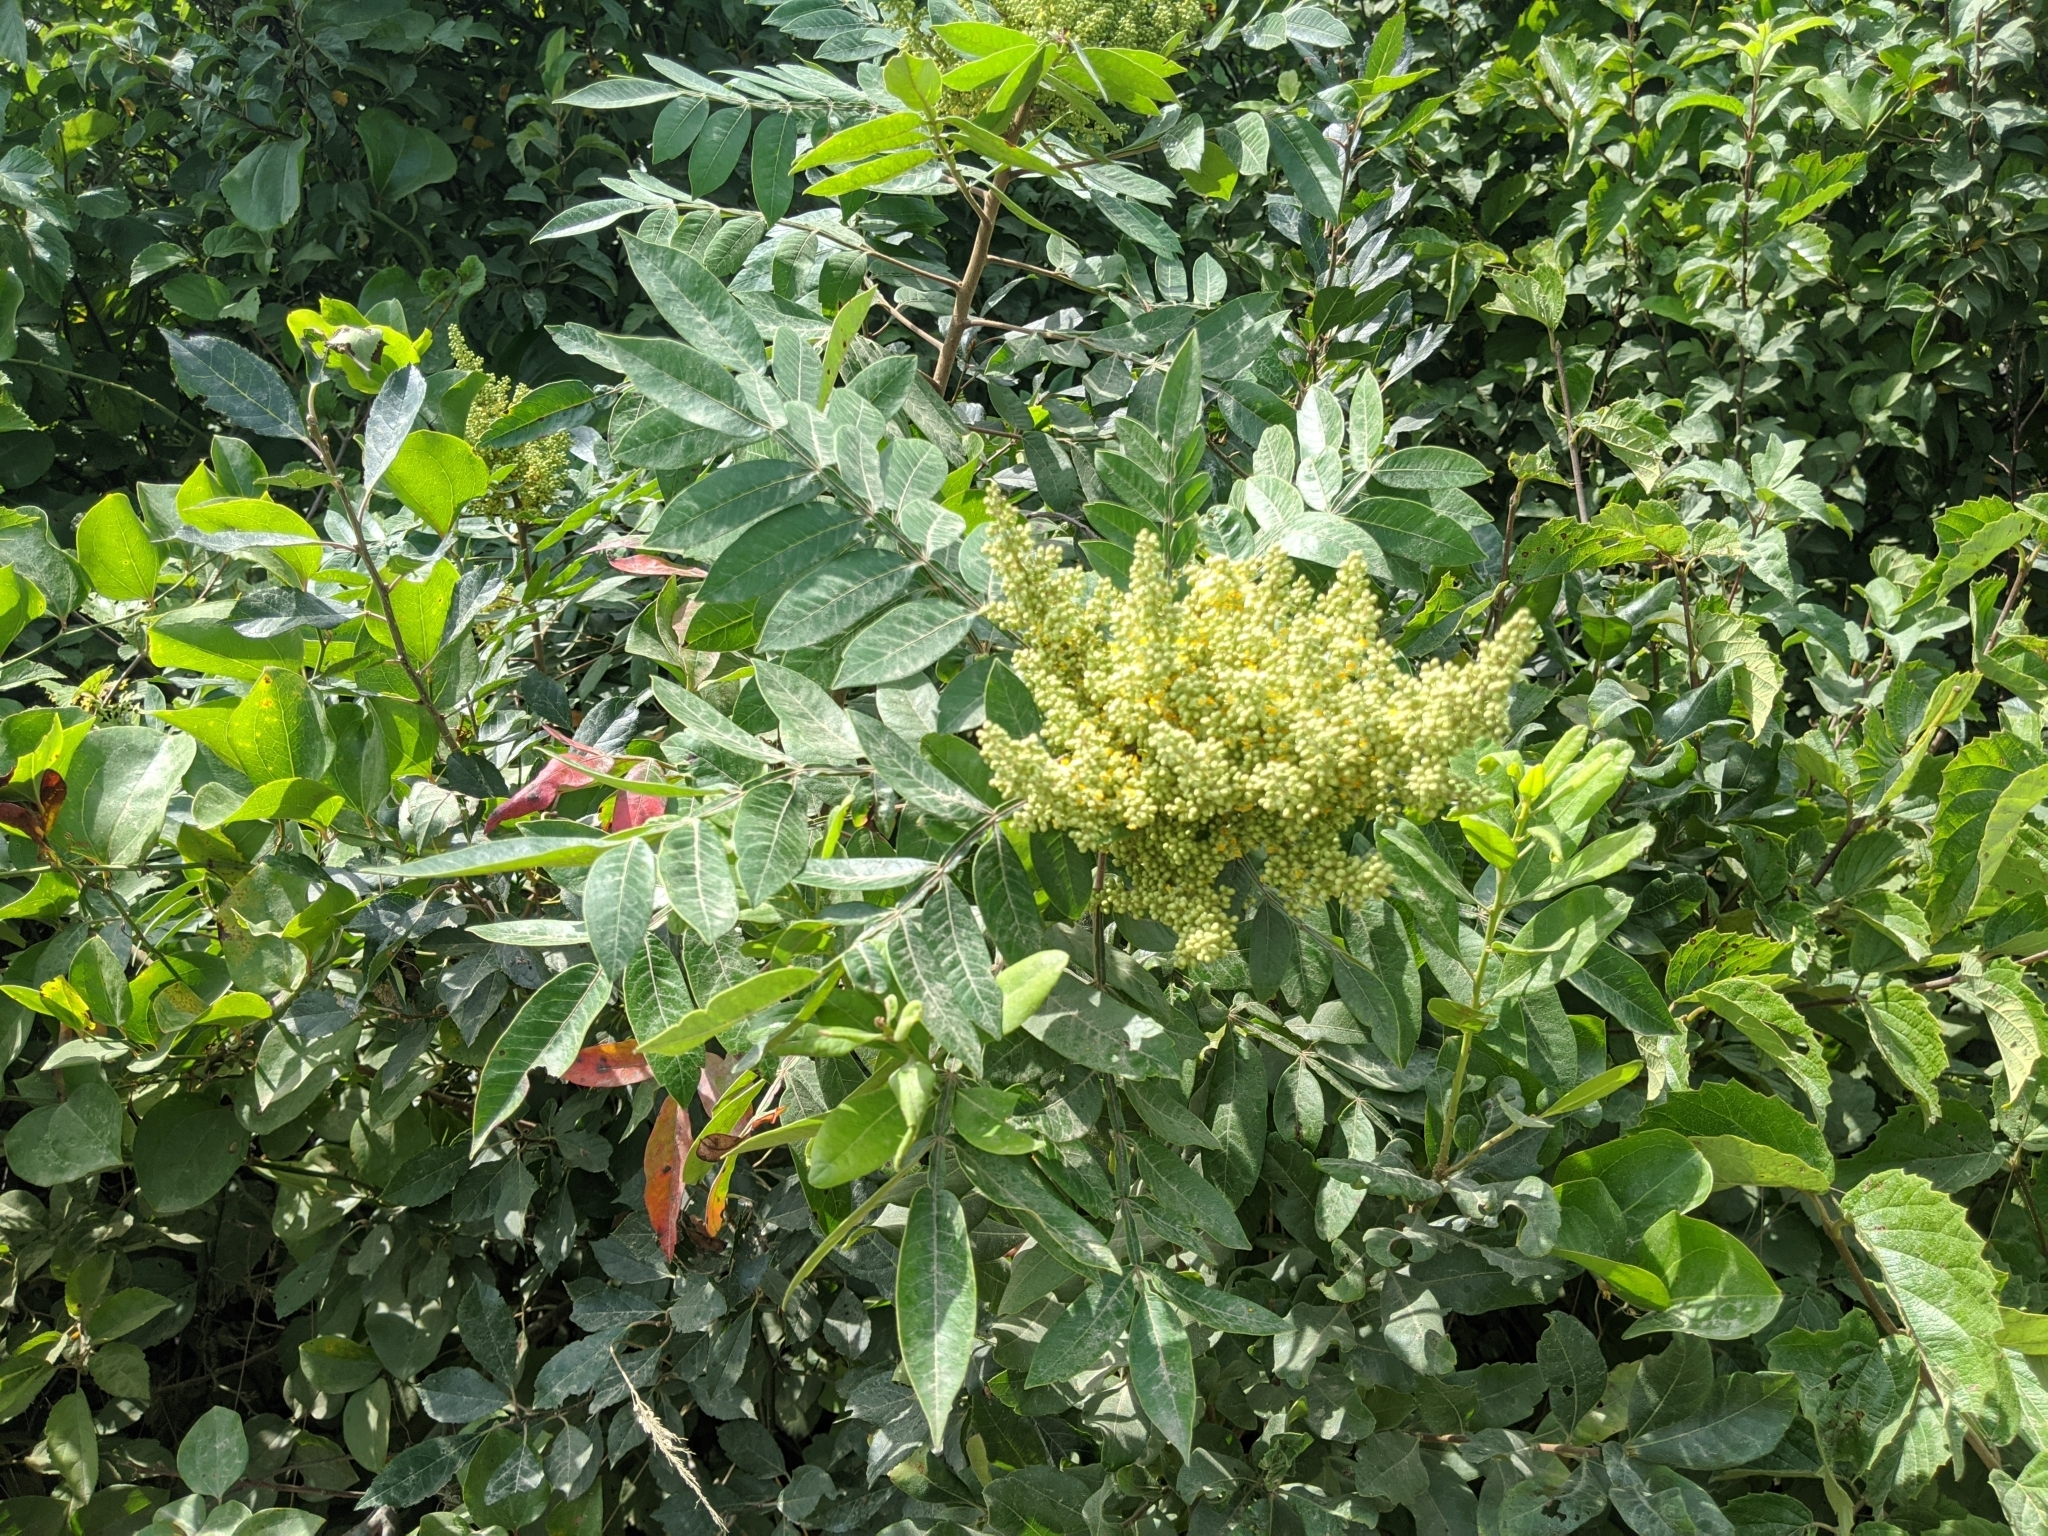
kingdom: Plantae
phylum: Tracheophyta
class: Magnoliopsida
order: Sapindales
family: Anacardiaceae
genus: Rhus
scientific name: Rhus copallina
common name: Shining sumac
